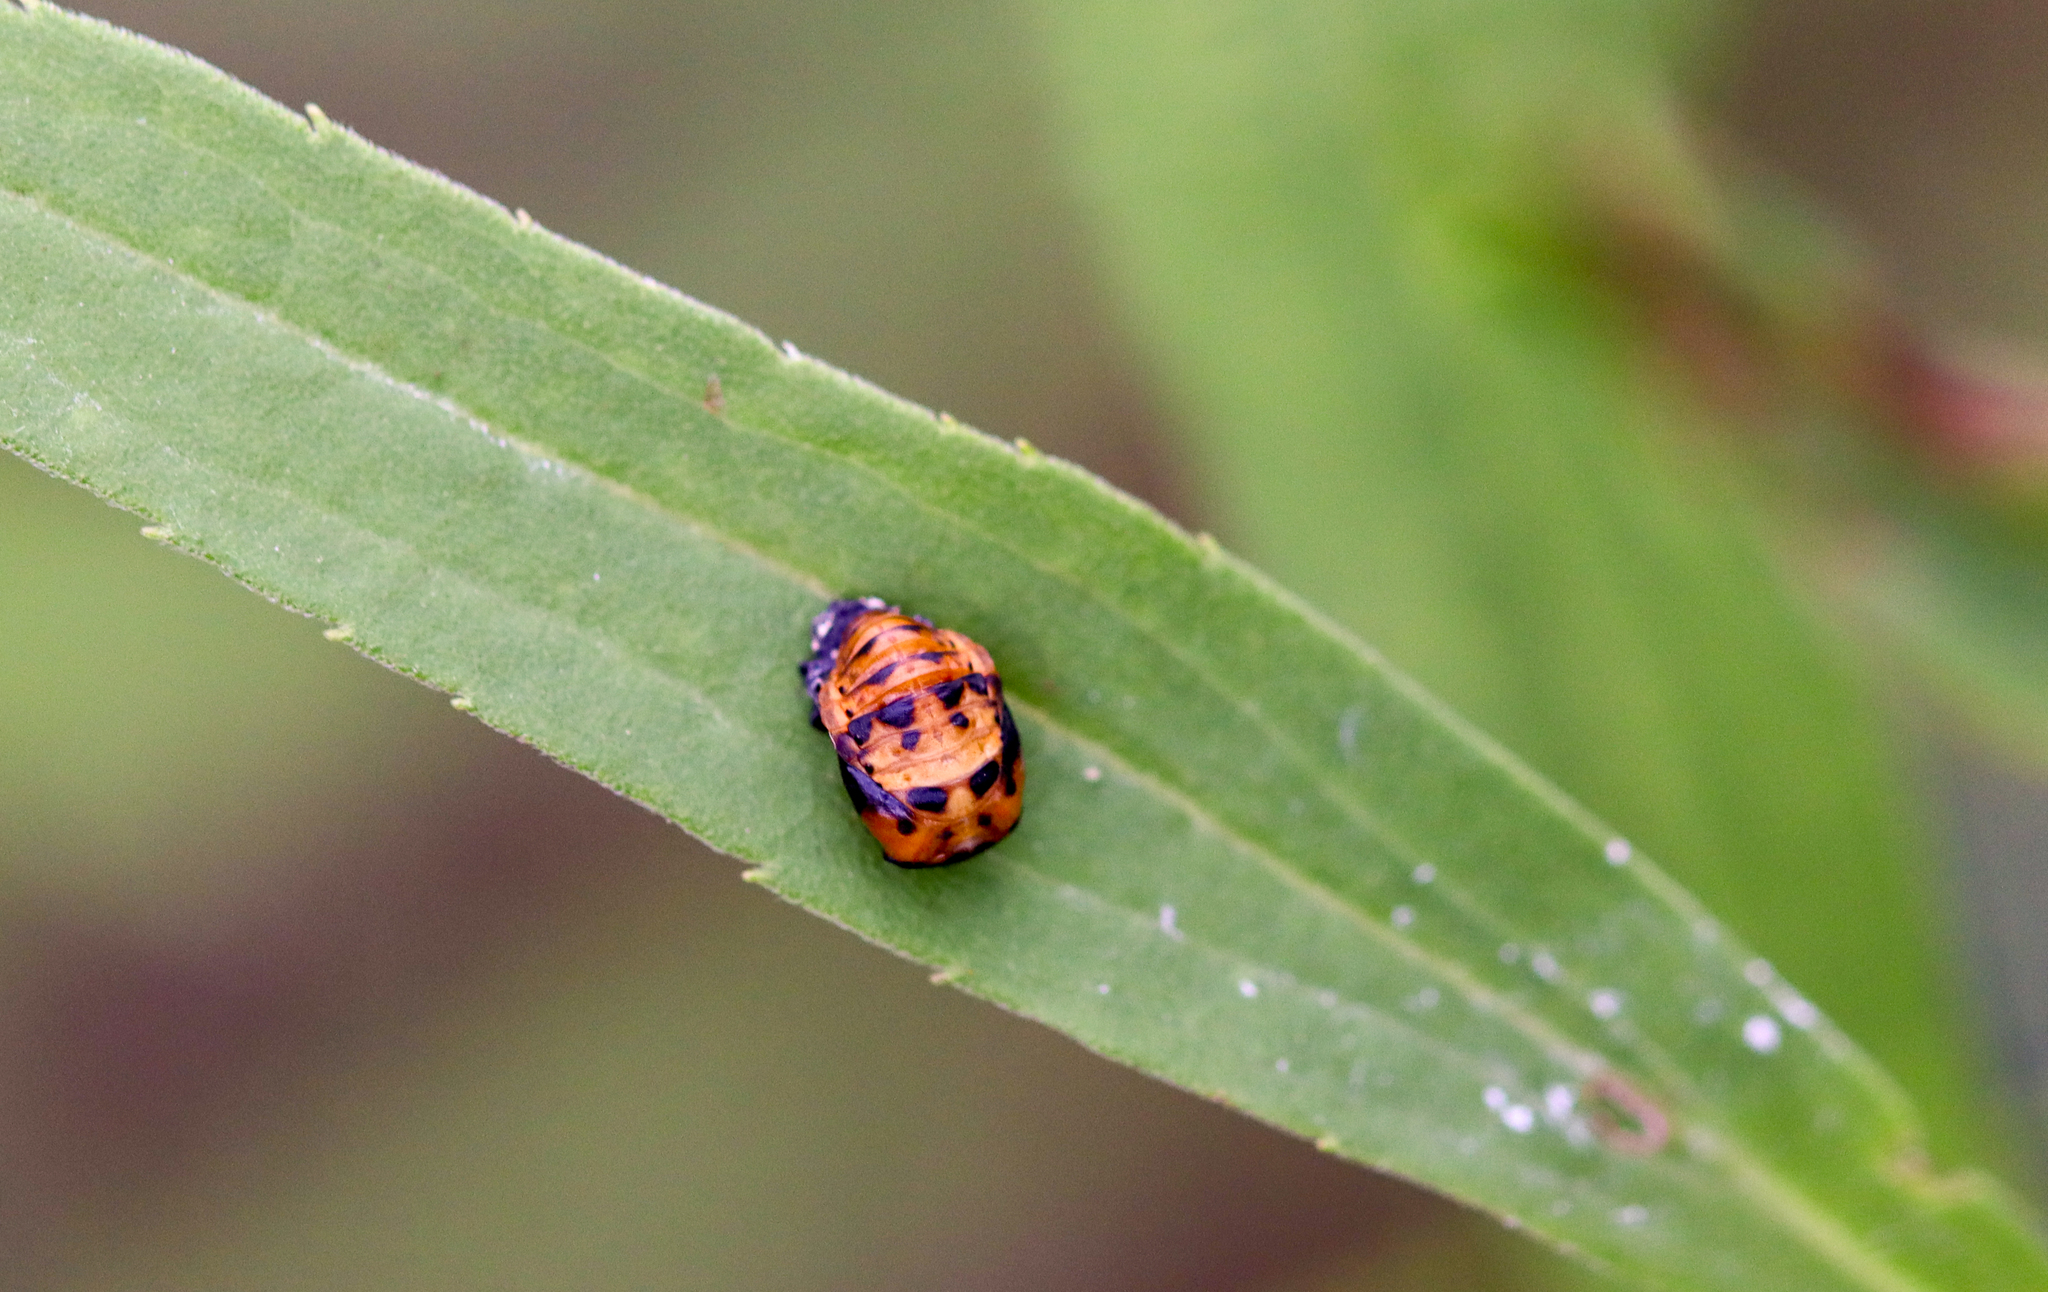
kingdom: Animalia
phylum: Arthropoda
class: Insecta
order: Coleoptera
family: Coccinellidae
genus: Harmonia
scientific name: Harmonia axyridis
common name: Harlequin ladybird
